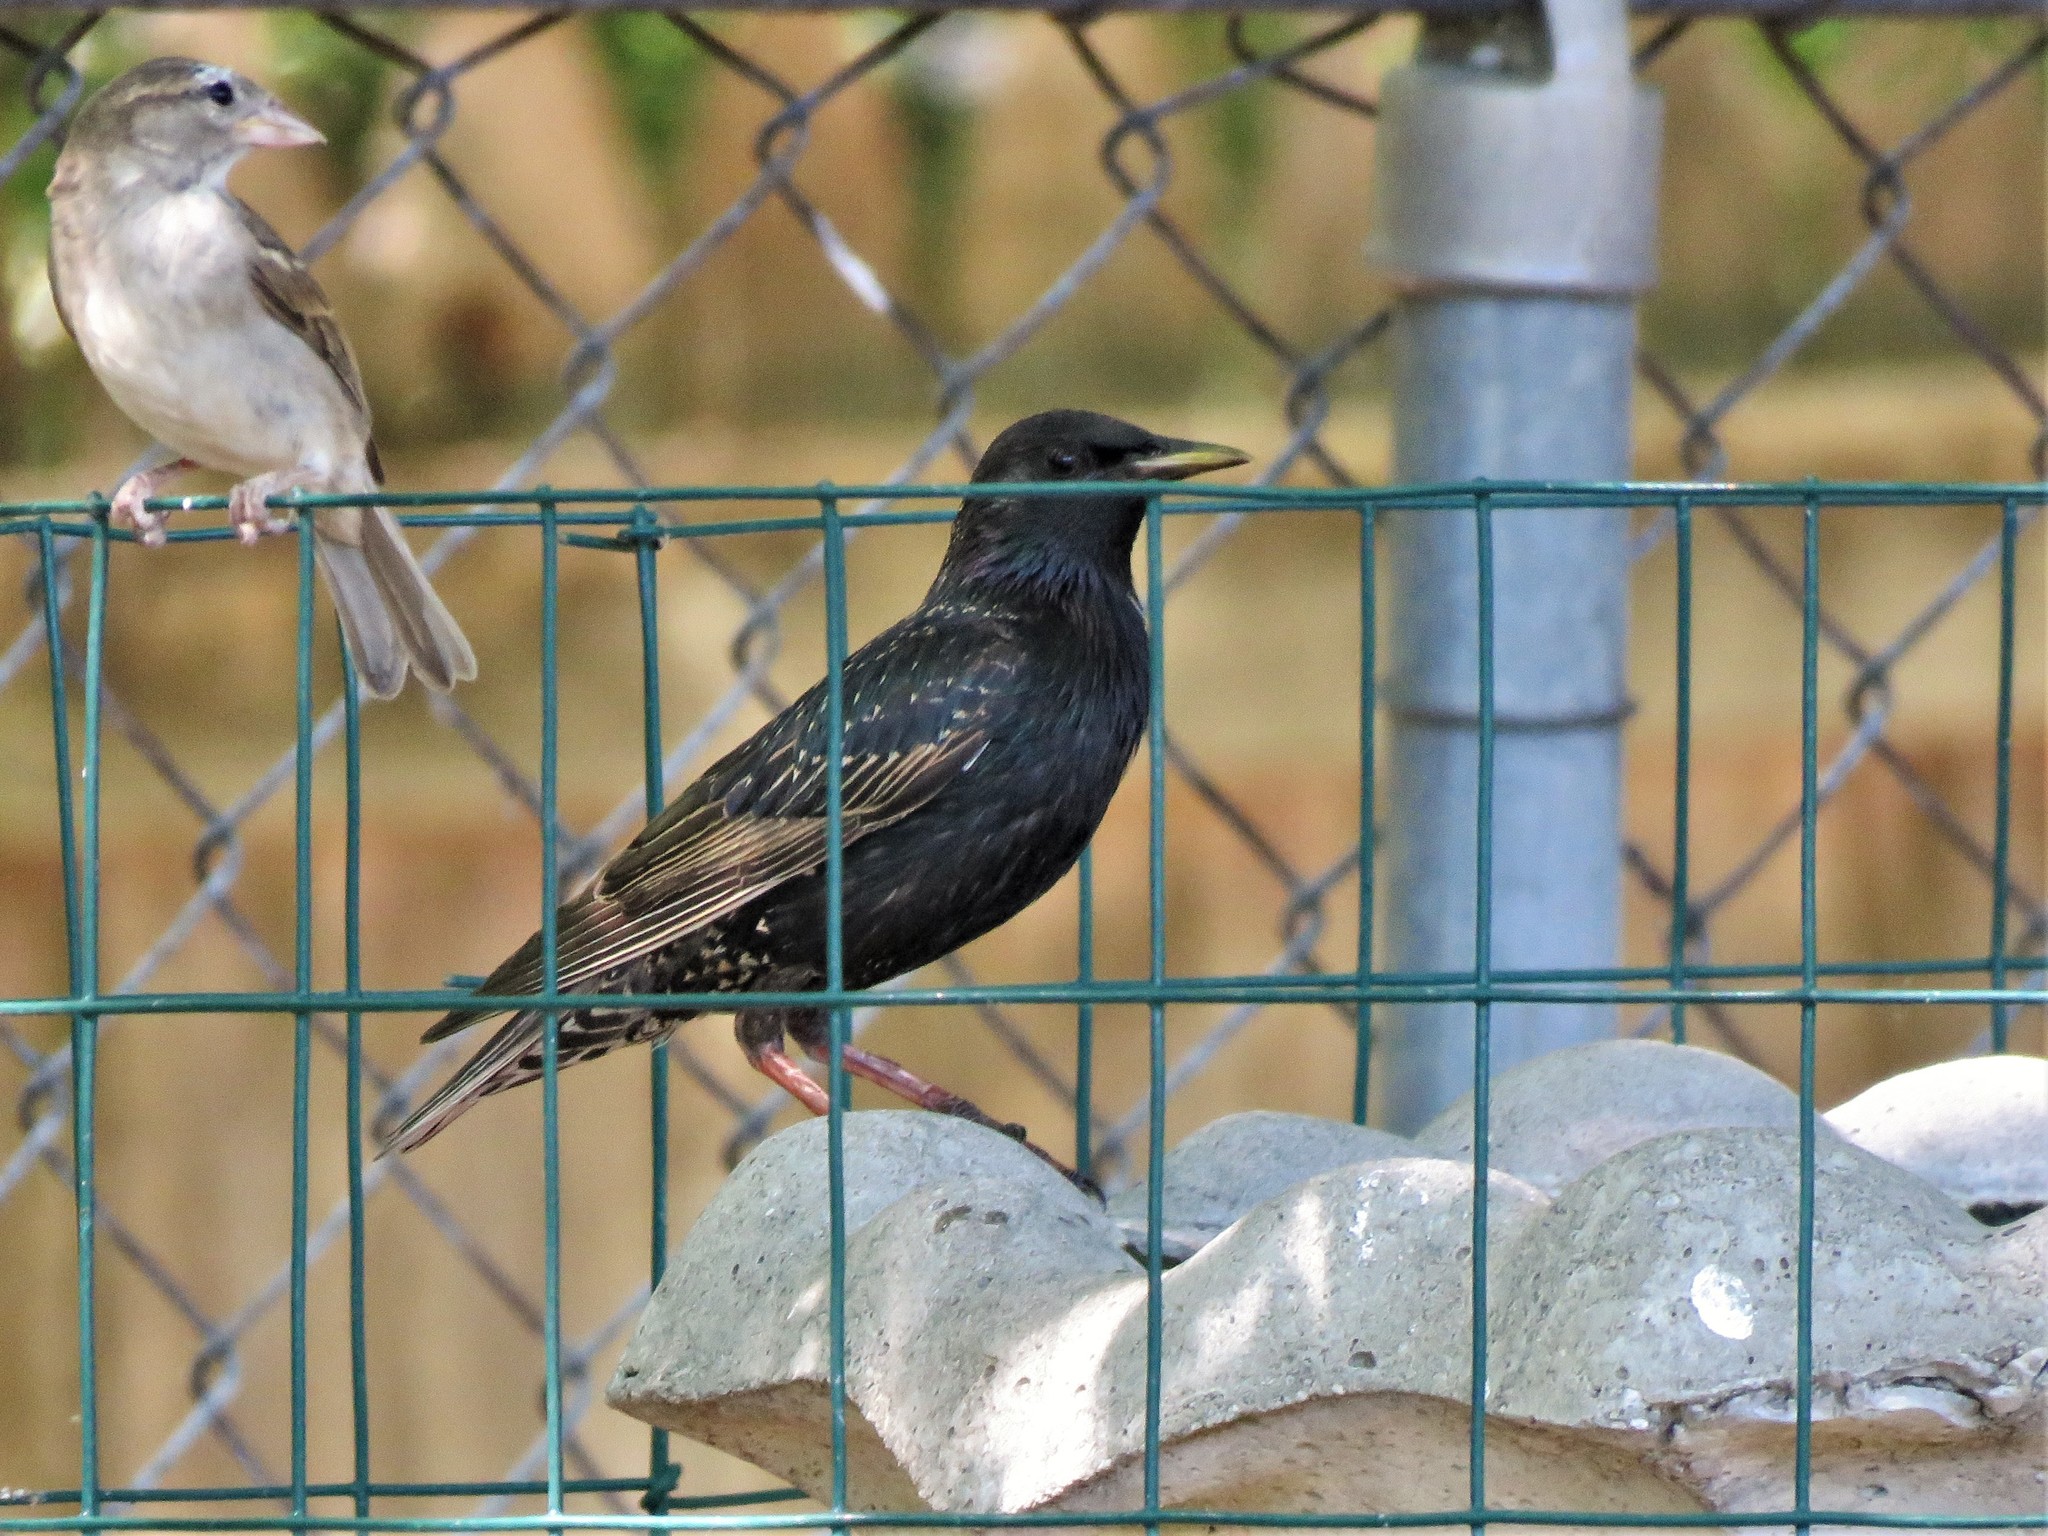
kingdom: Animalia
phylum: Chordata
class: Aves
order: Passeriformes
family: Sturnidae
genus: Sturnus
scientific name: Sturnus vulgaris
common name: Common starling
